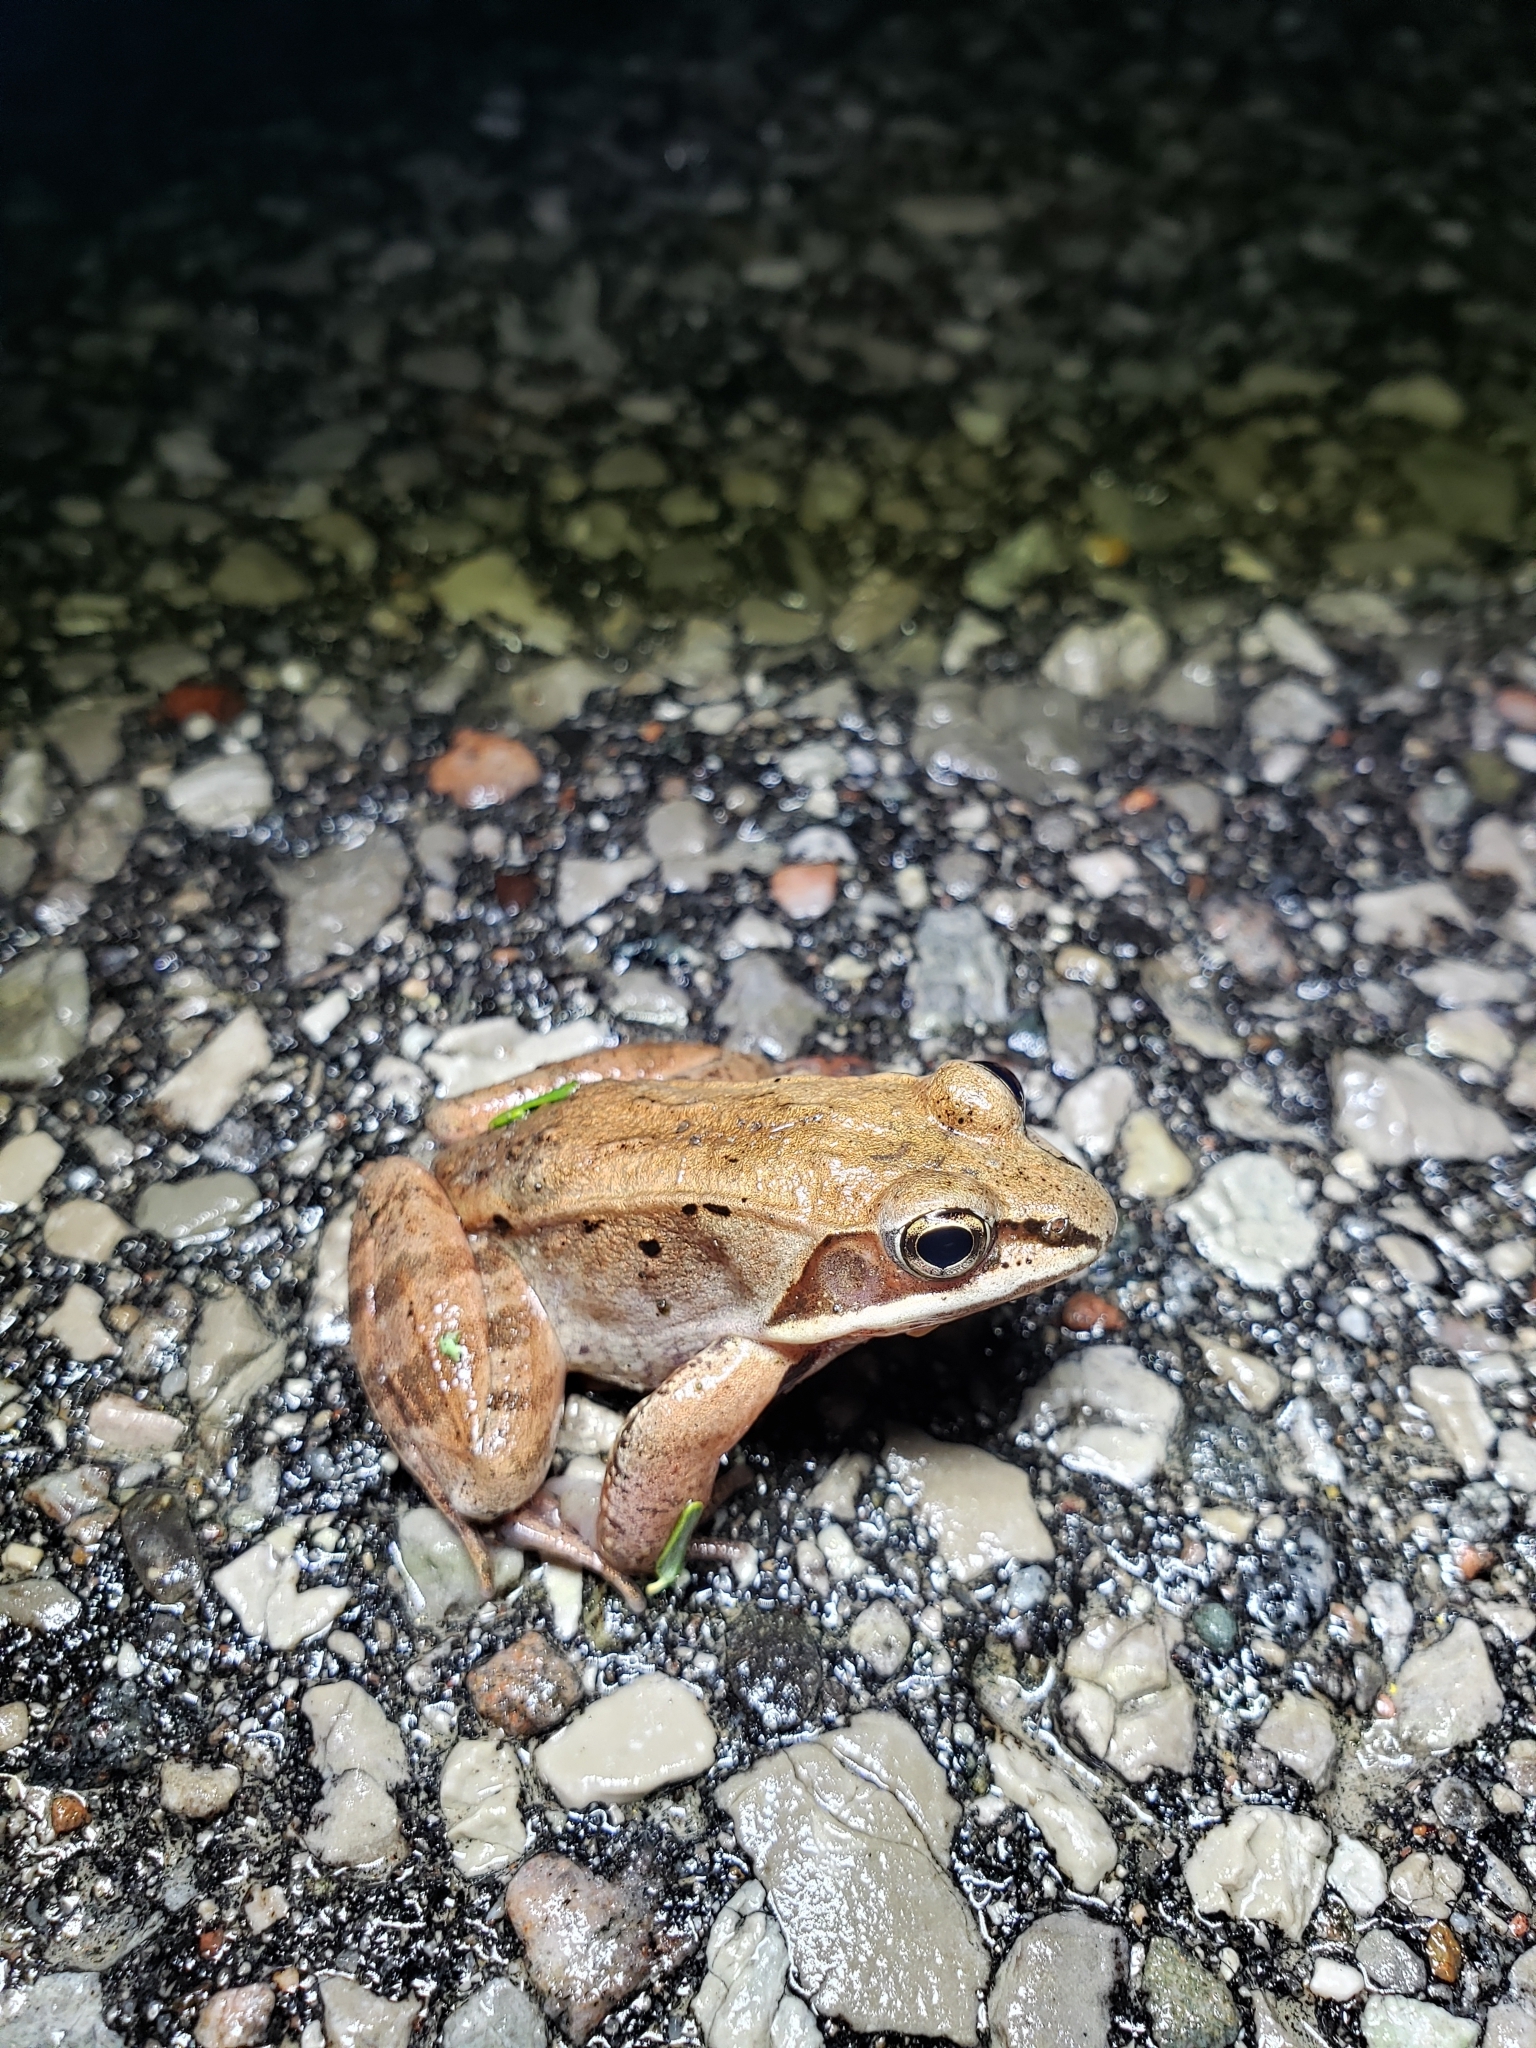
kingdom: Animalia
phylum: Chordata
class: Amphibia
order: Anura
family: Ranidae
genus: Lithobates
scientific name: Lithobates sylvaticus
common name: Wood frog
